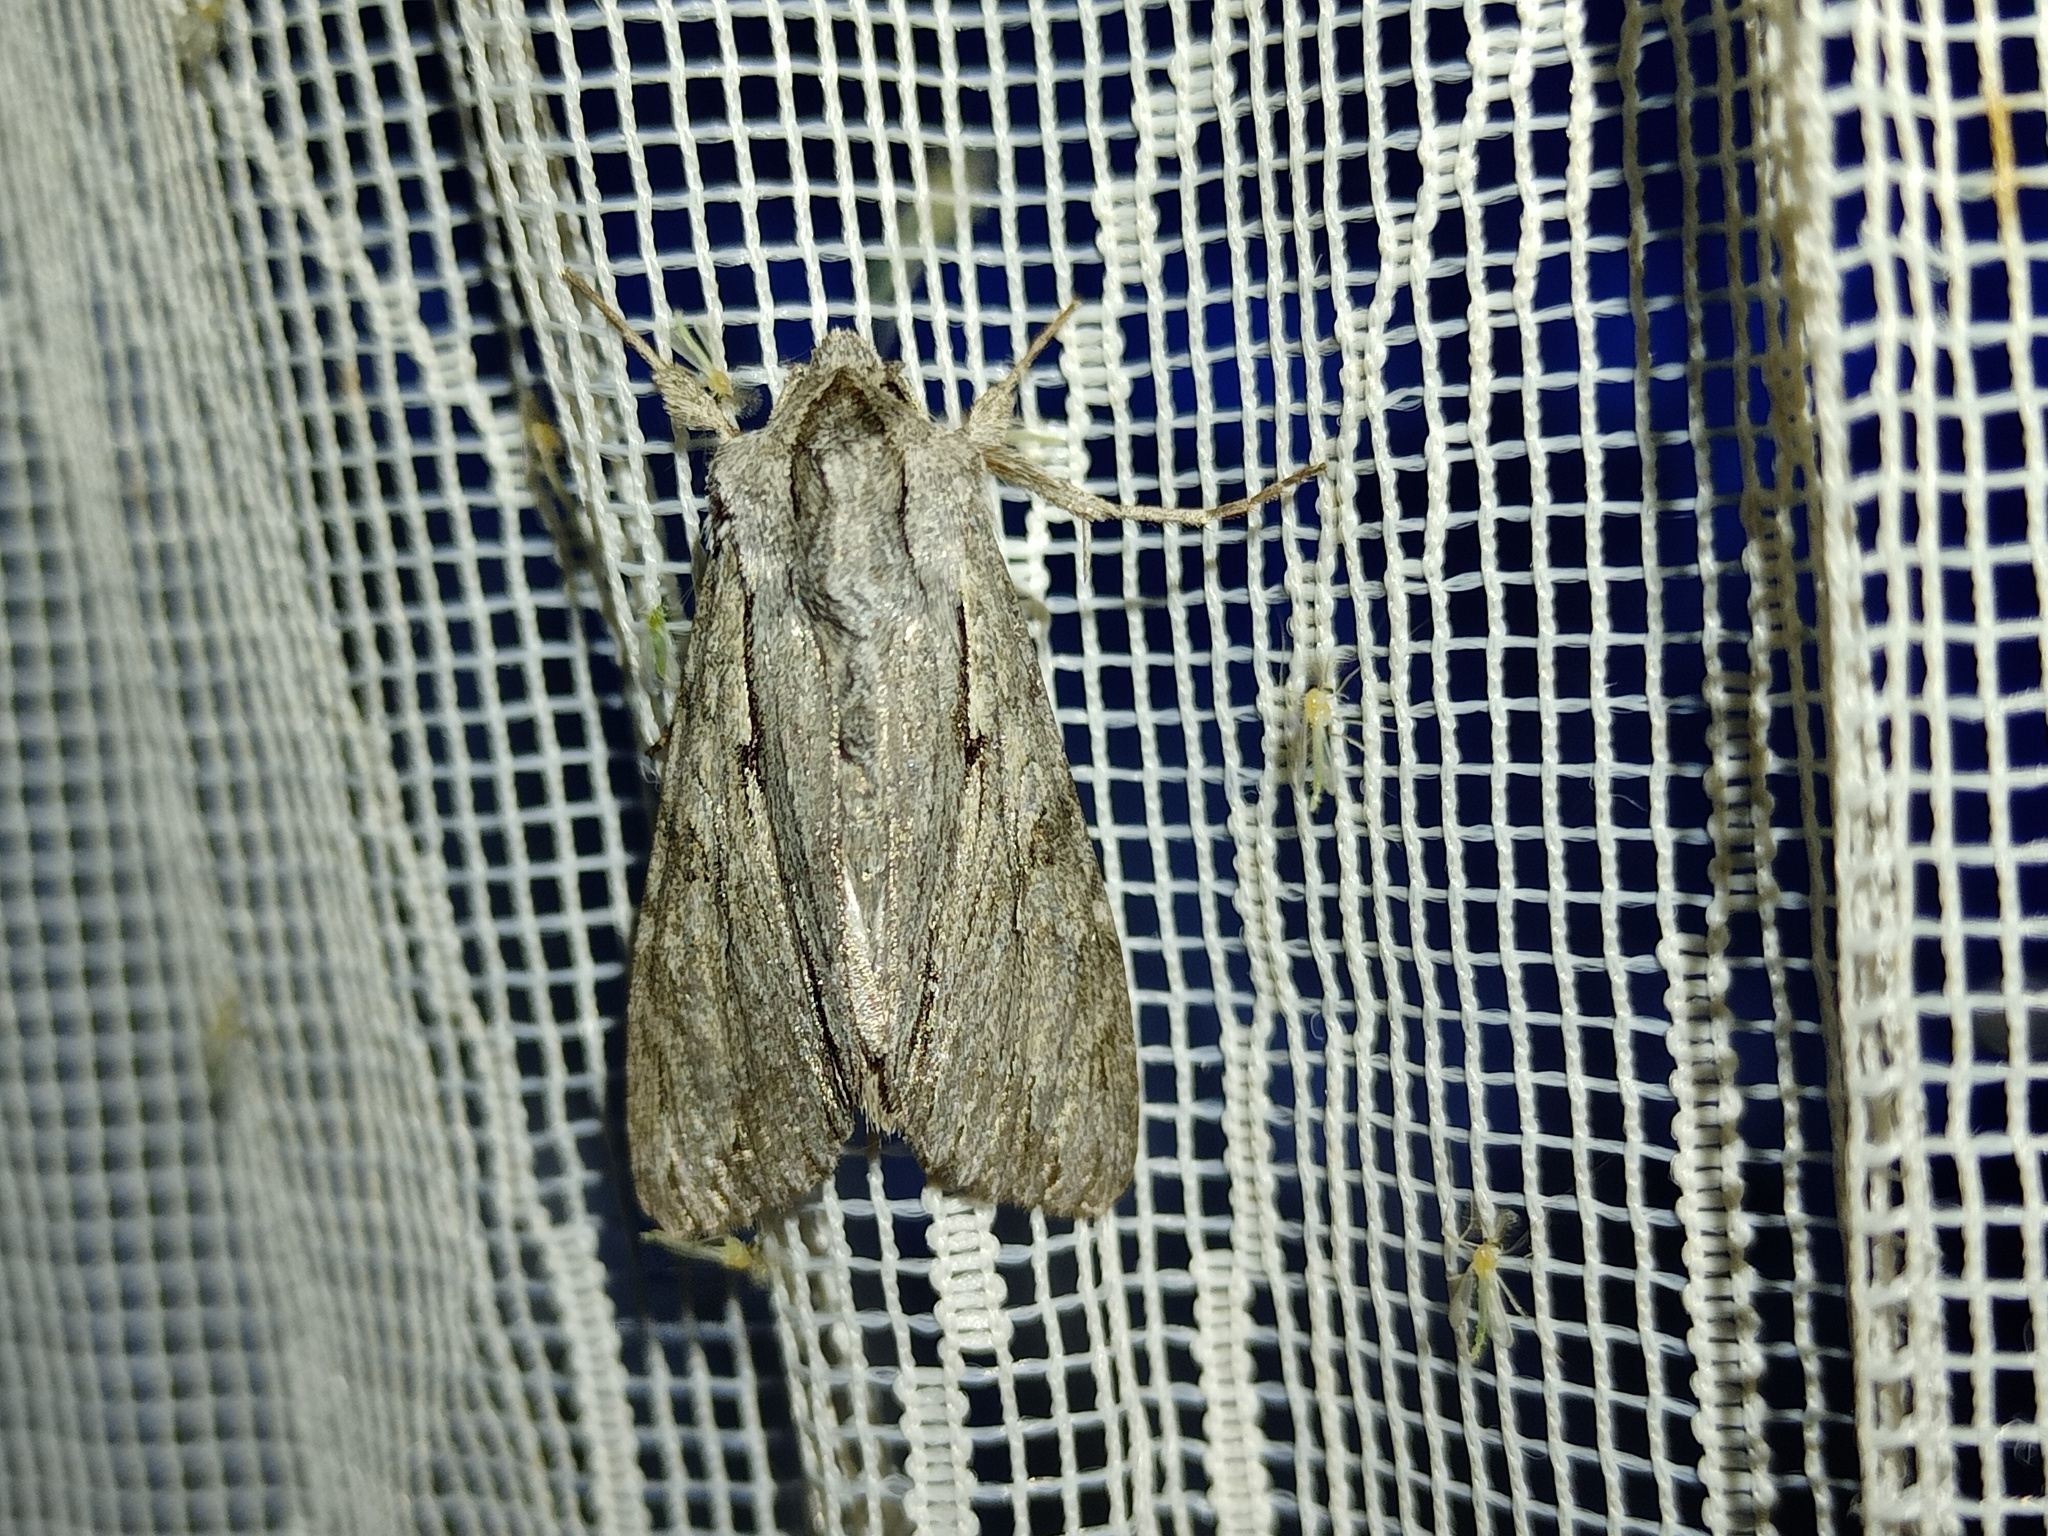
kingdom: Animalia
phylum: Arthropoda
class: Insecta
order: Lepidoptera
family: Noctuidae
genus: Auchmis
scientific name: Auchmis detersa
